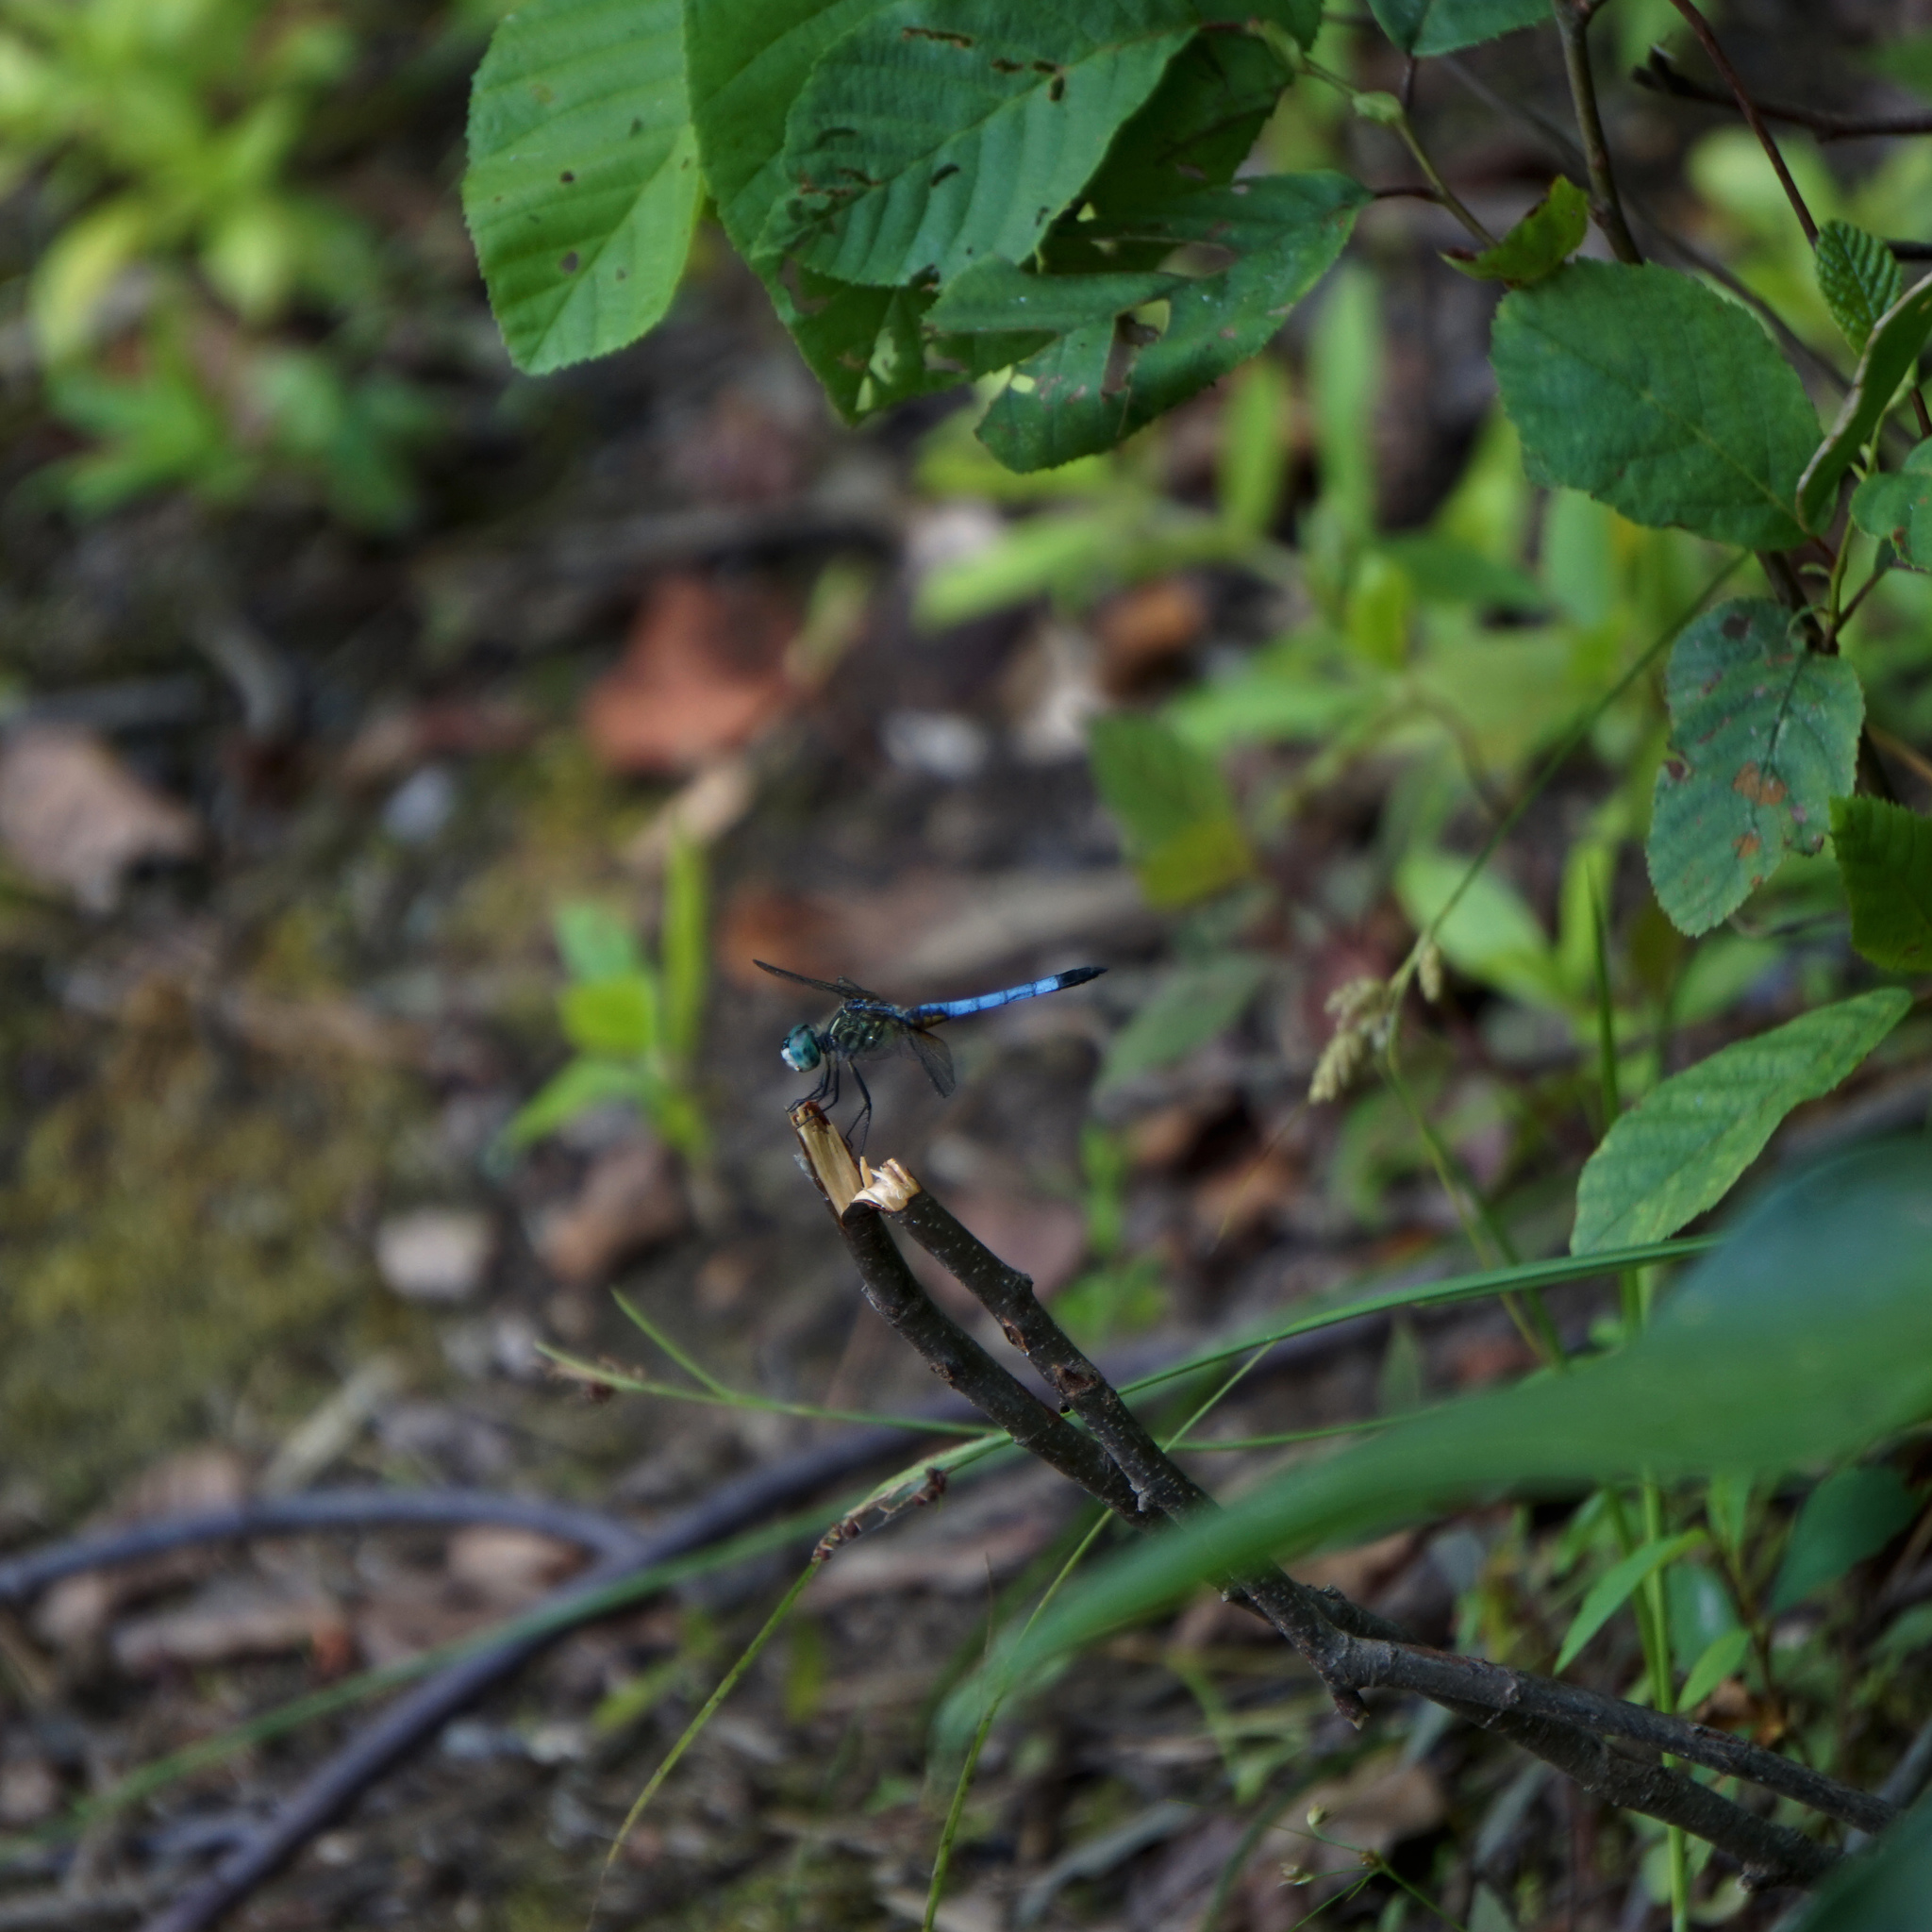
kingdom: Animalia
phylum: Arthropoda
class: Insecta
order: Odonata
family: Libellulidae
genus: Pachydiplax
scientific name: Pachydiplax longipennis
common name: Blue dasher
